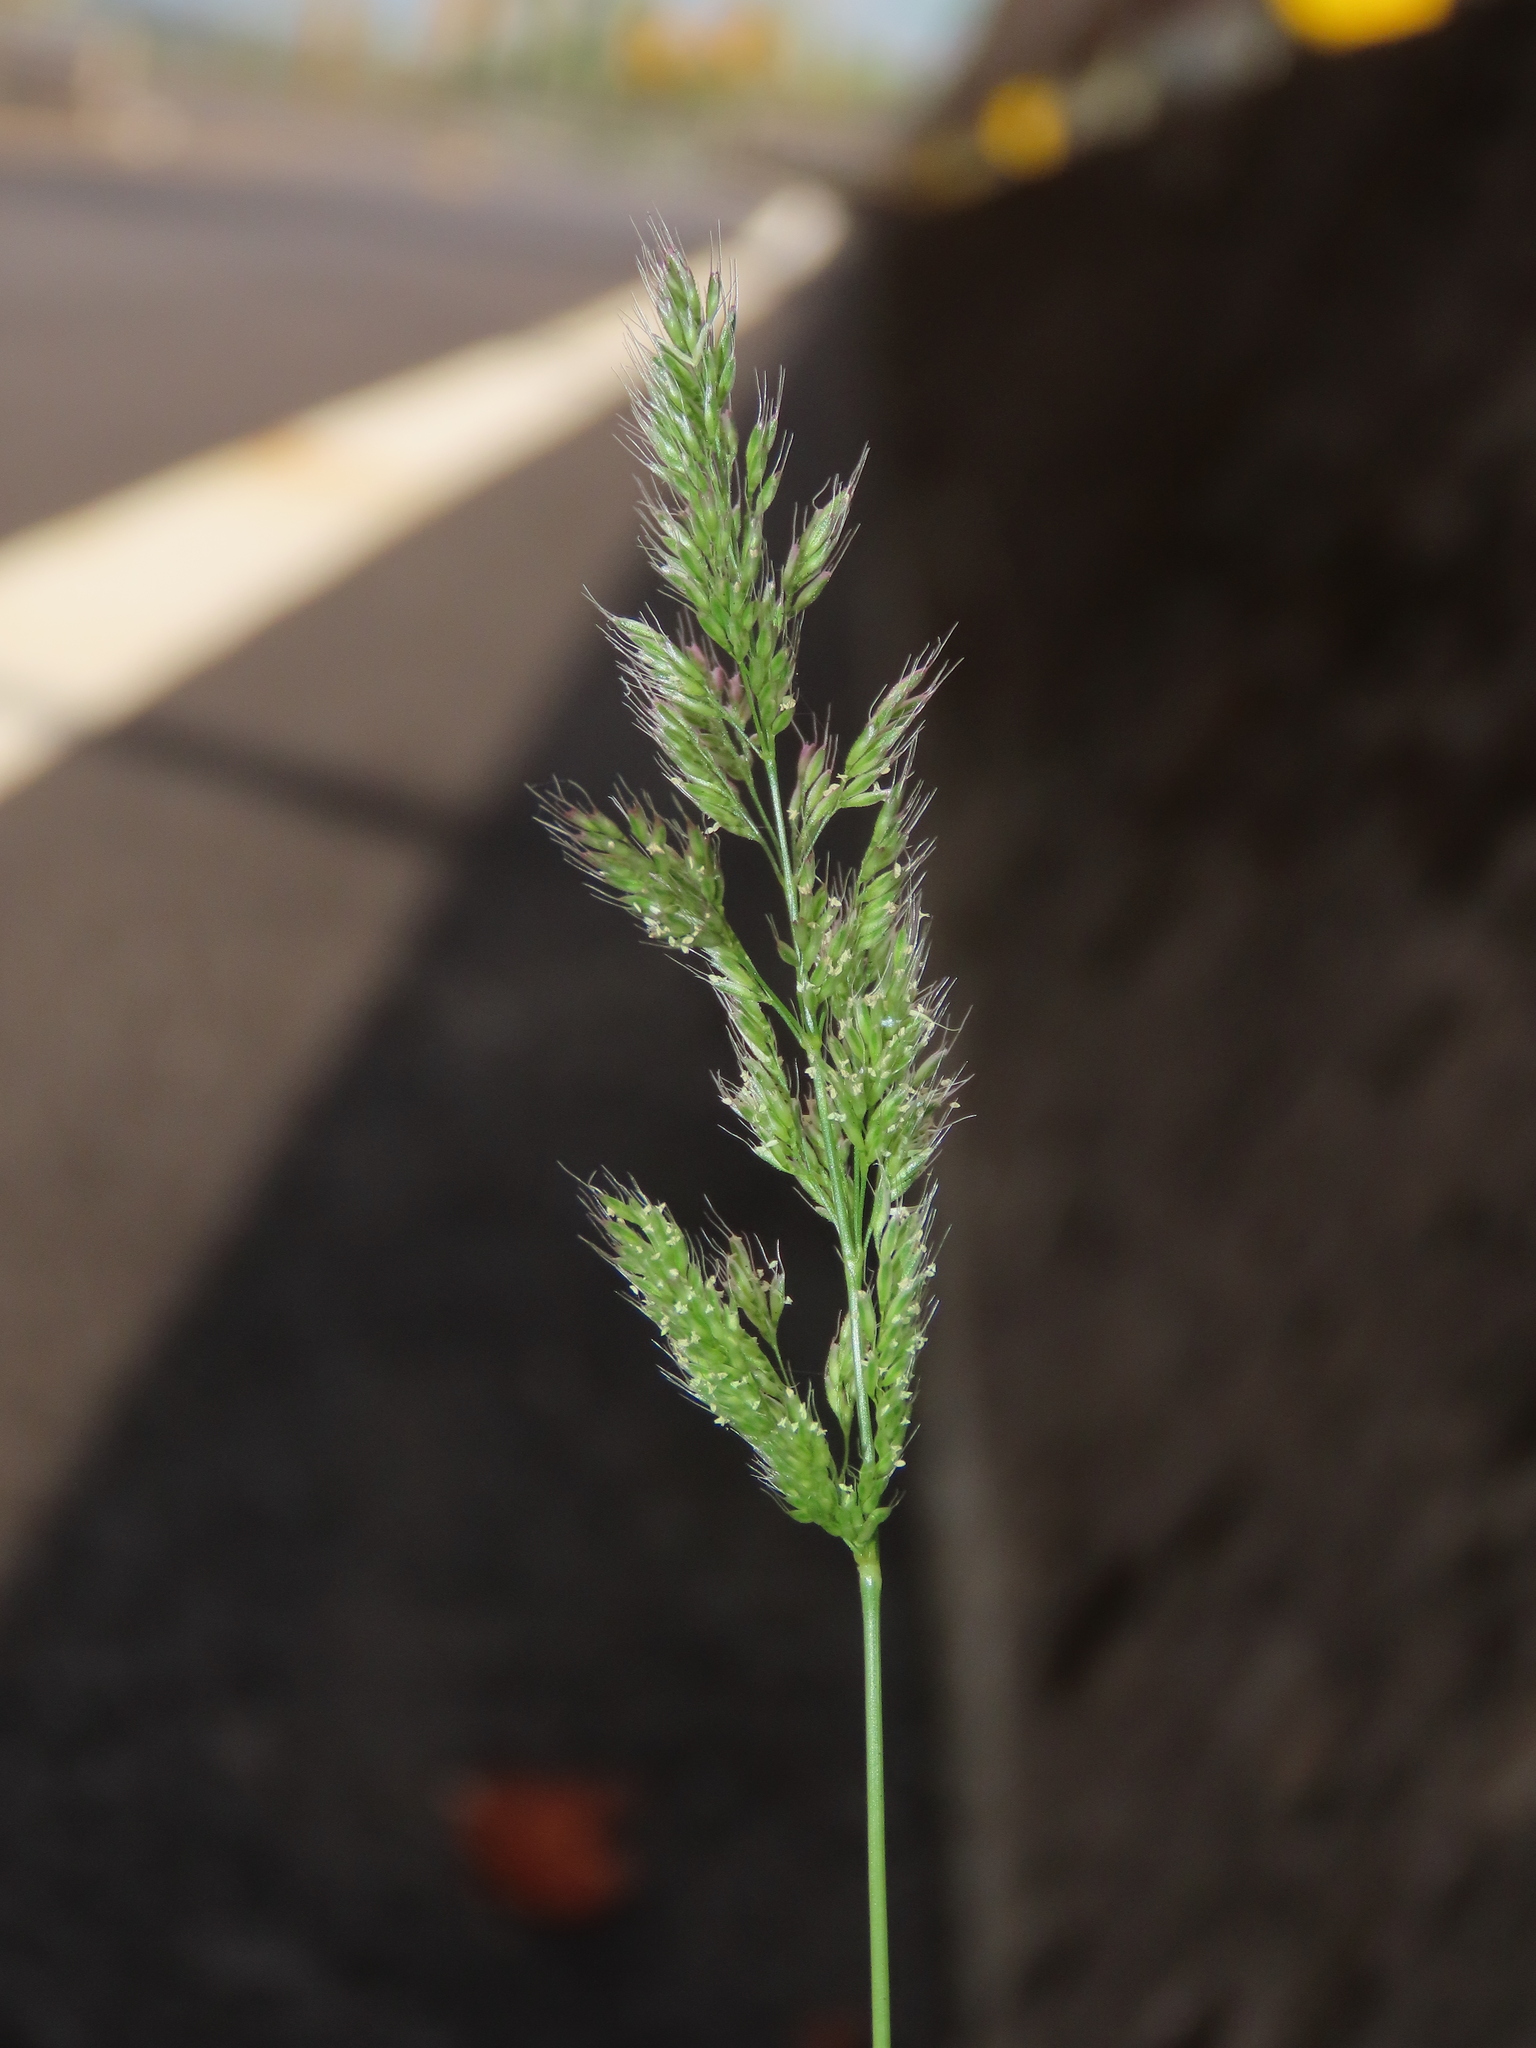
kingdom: Plantae
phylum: Tracheophyta
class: Liliopsida
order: Poales
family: Poaceae
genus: Polypogon
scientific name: Polypogon fugax
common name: Asia minor bluegrass
